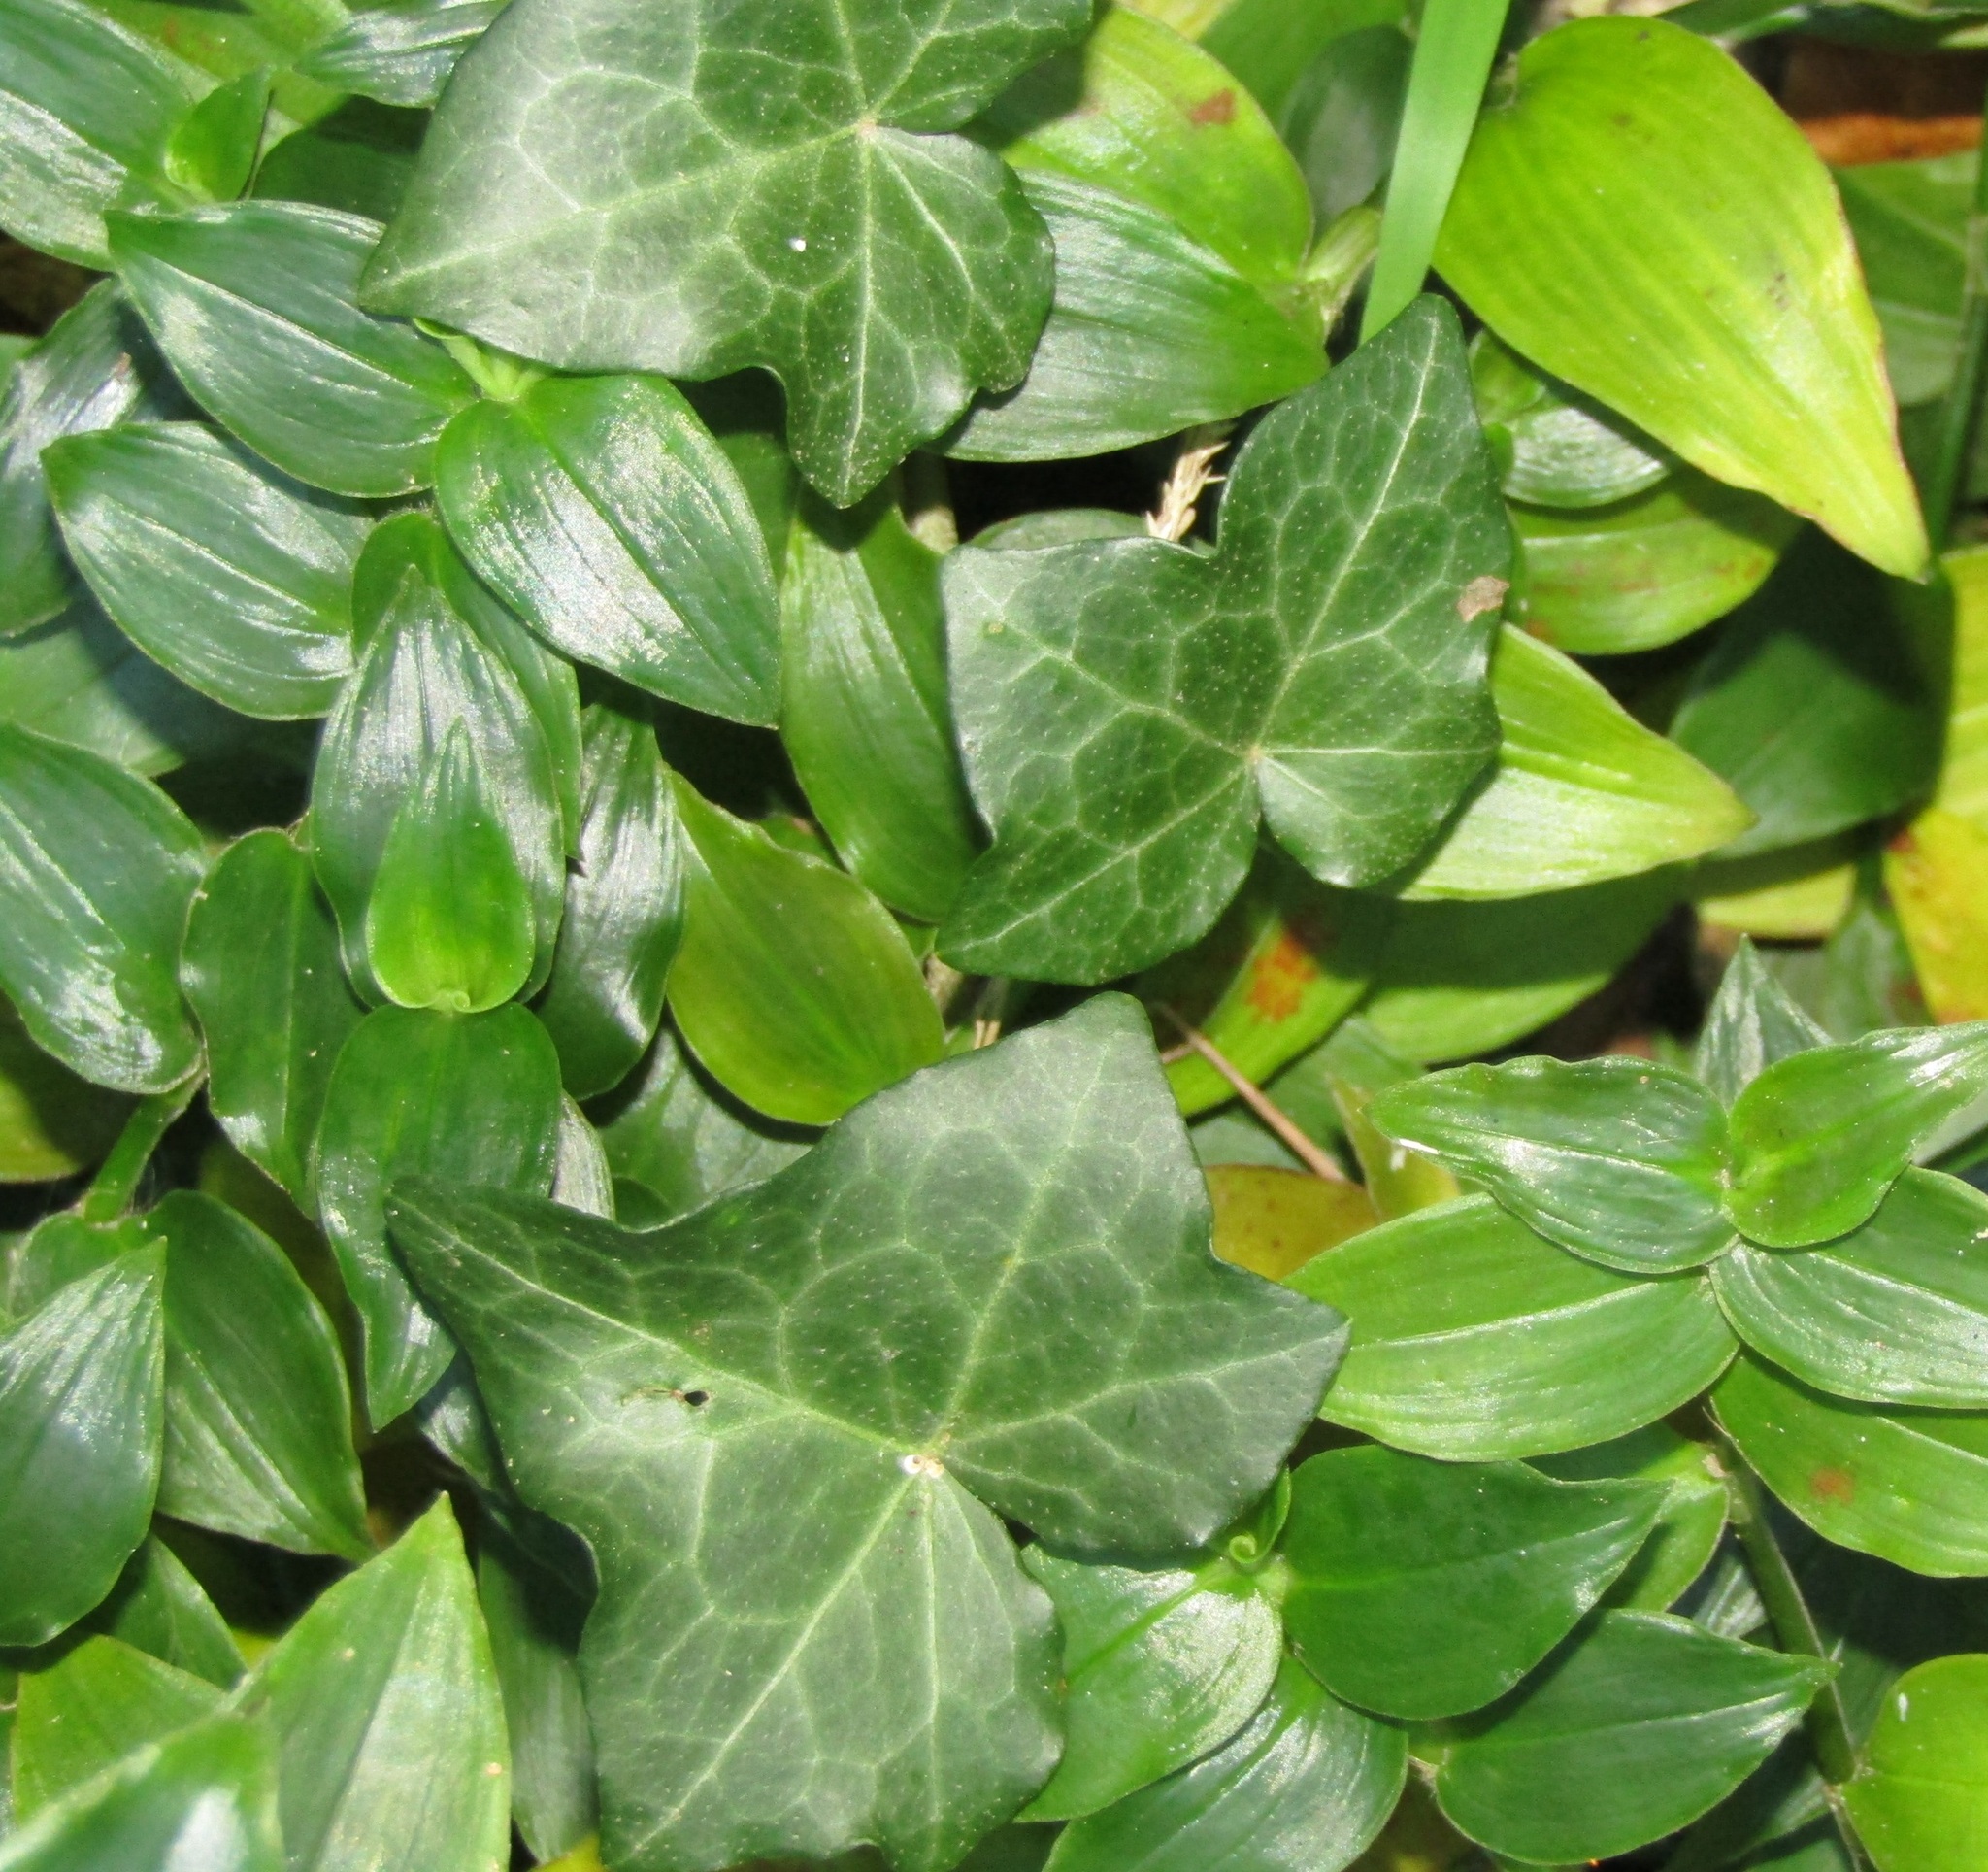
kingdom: Plantae
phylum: Tracheophyta
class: Liliopsida
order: Commelinales
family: Commelinaceae
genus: Tradescantia
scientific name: Tradescantia fluminensis
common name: Wandering-jew
